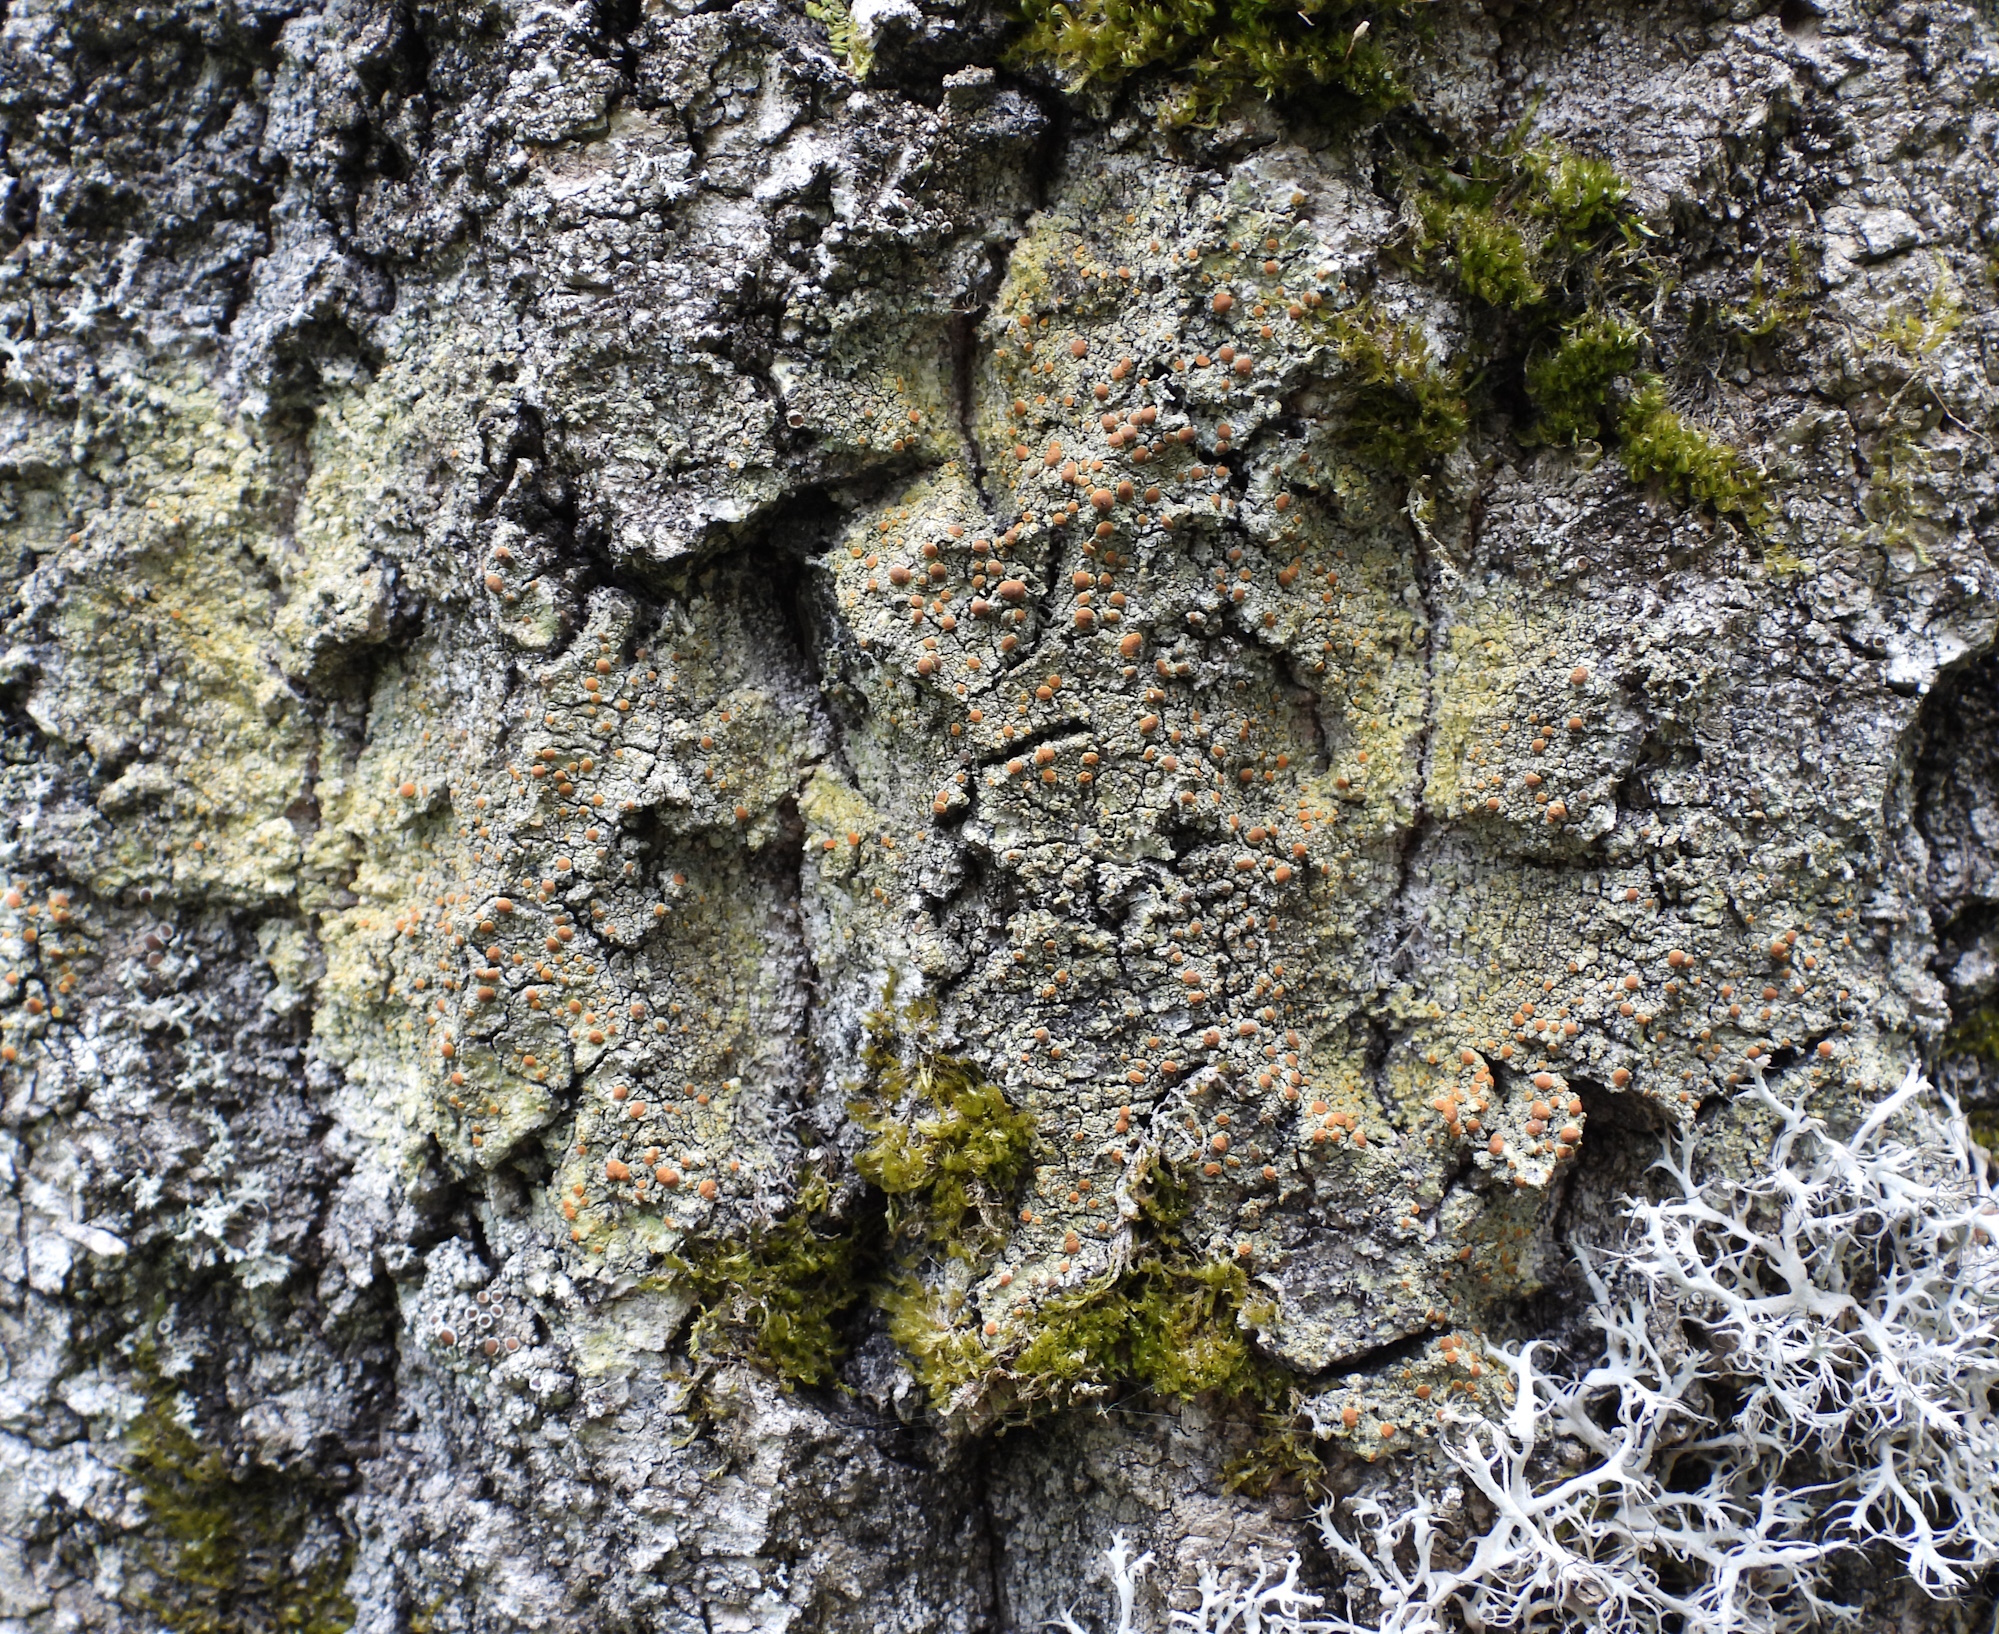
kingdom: Fungi
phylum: Ascomycota
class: Lecanoromycetes
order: Teloschistales
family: Teloschistaceae
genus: Opeltia
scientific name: Opeltia flavorubescens
